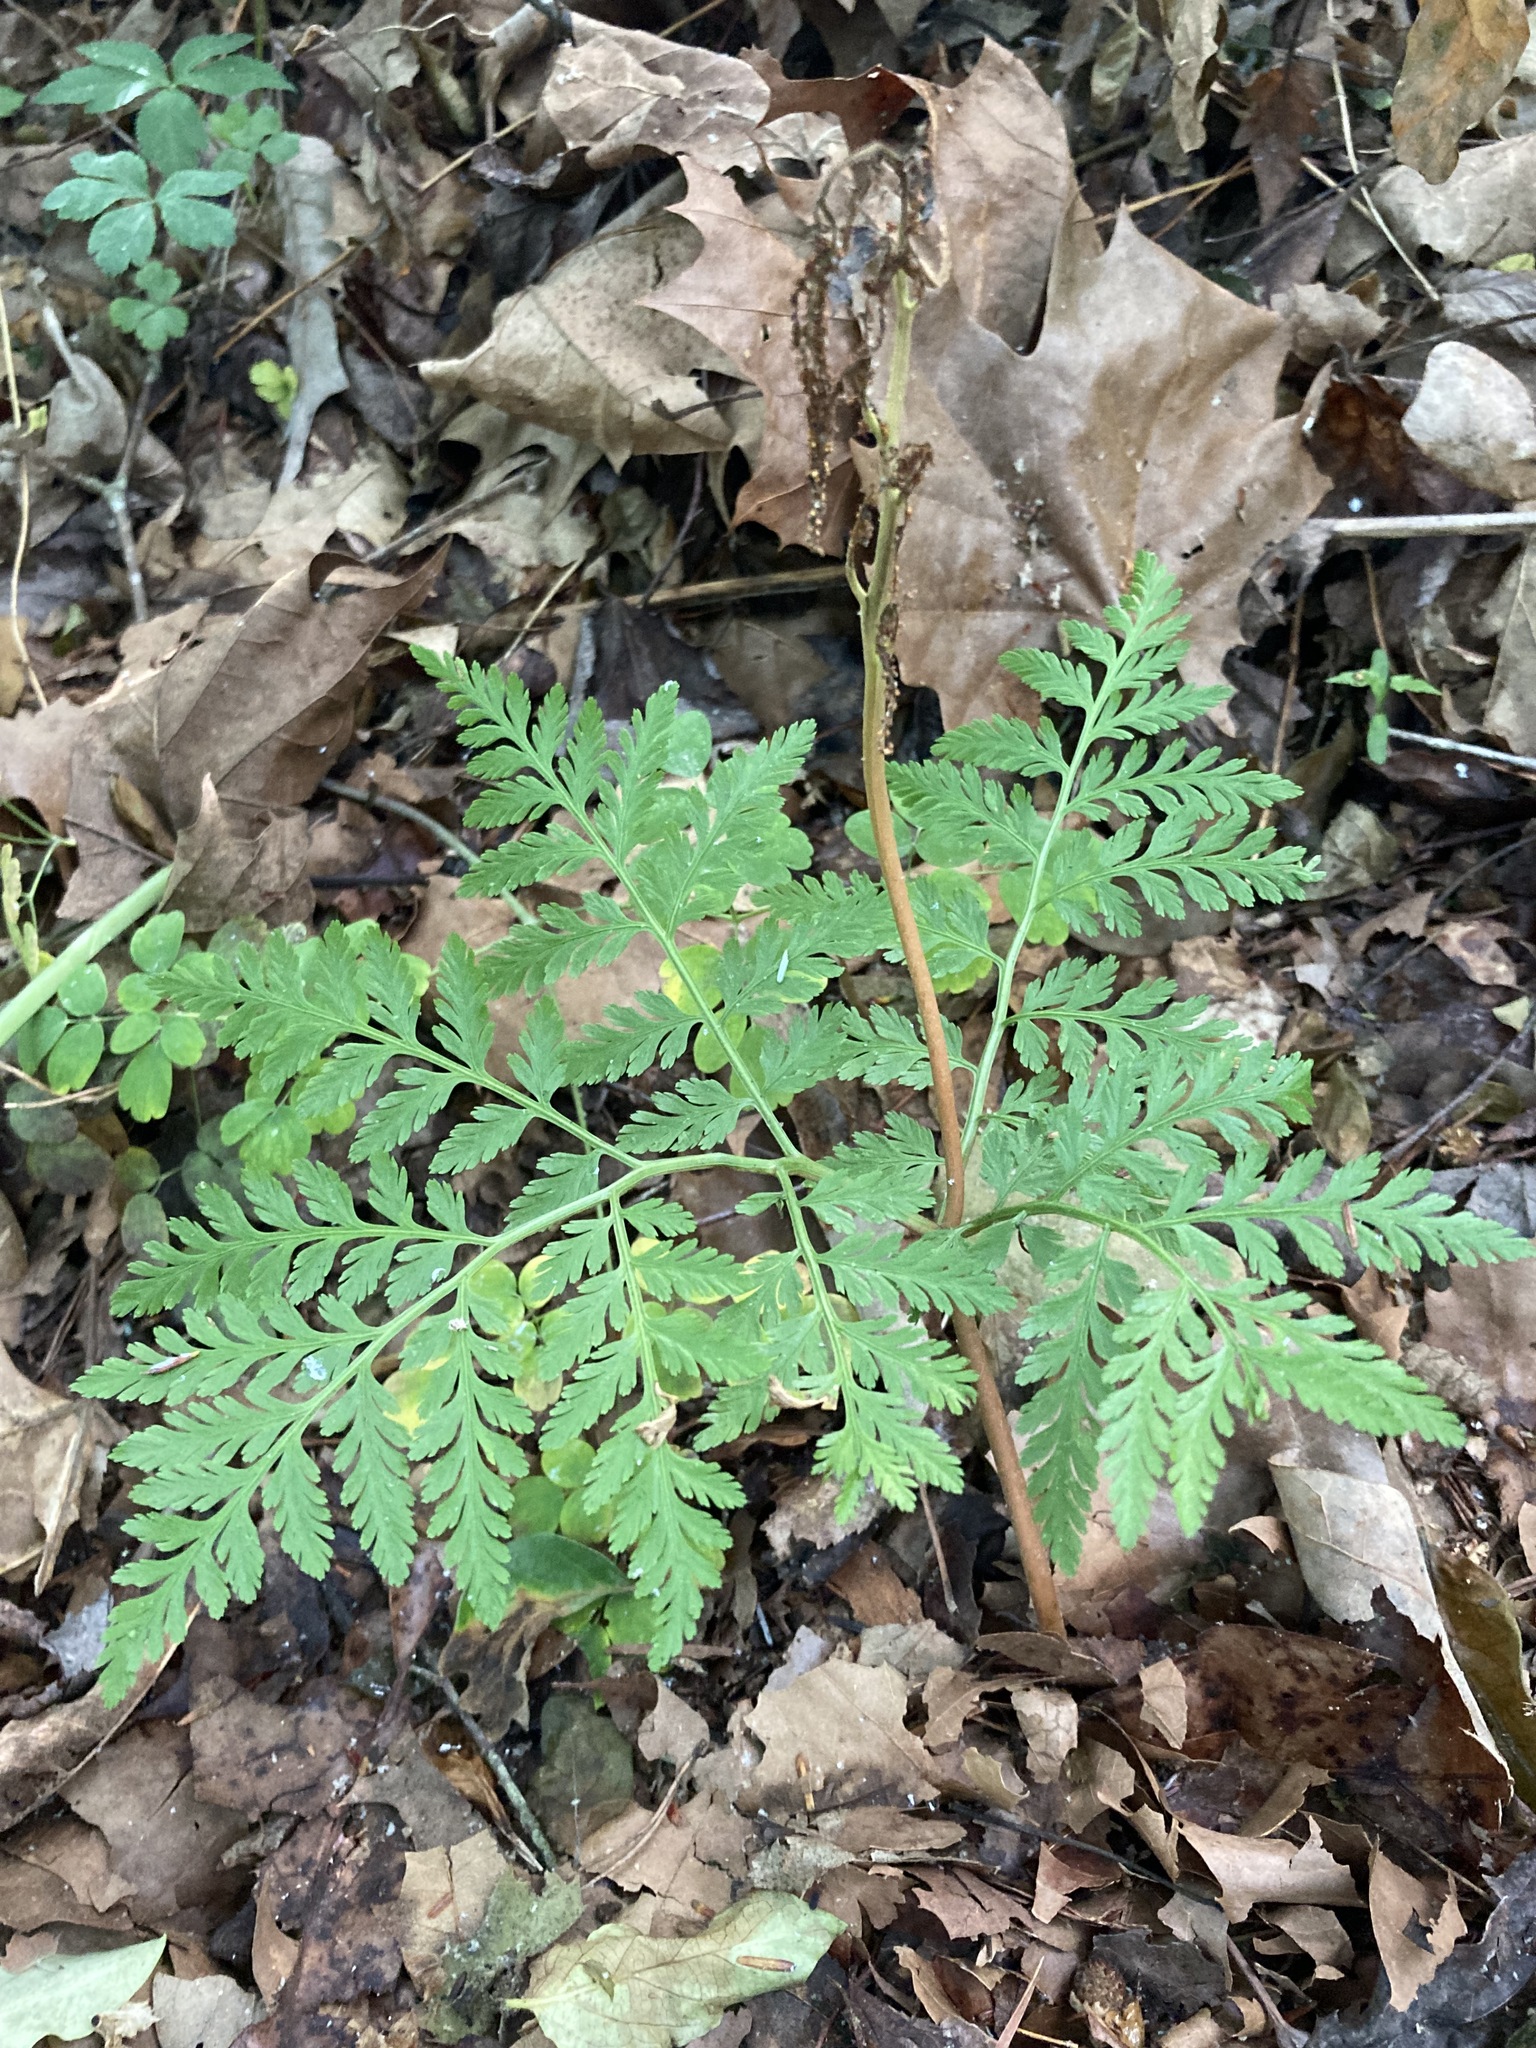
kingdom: Plantae
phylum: Tracheophyta
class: Polypodiopsida
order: Ophioglossales
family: Ophioglossaceae
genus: Botrypus
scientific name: Botrypus virginianus
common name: Common grapefern
